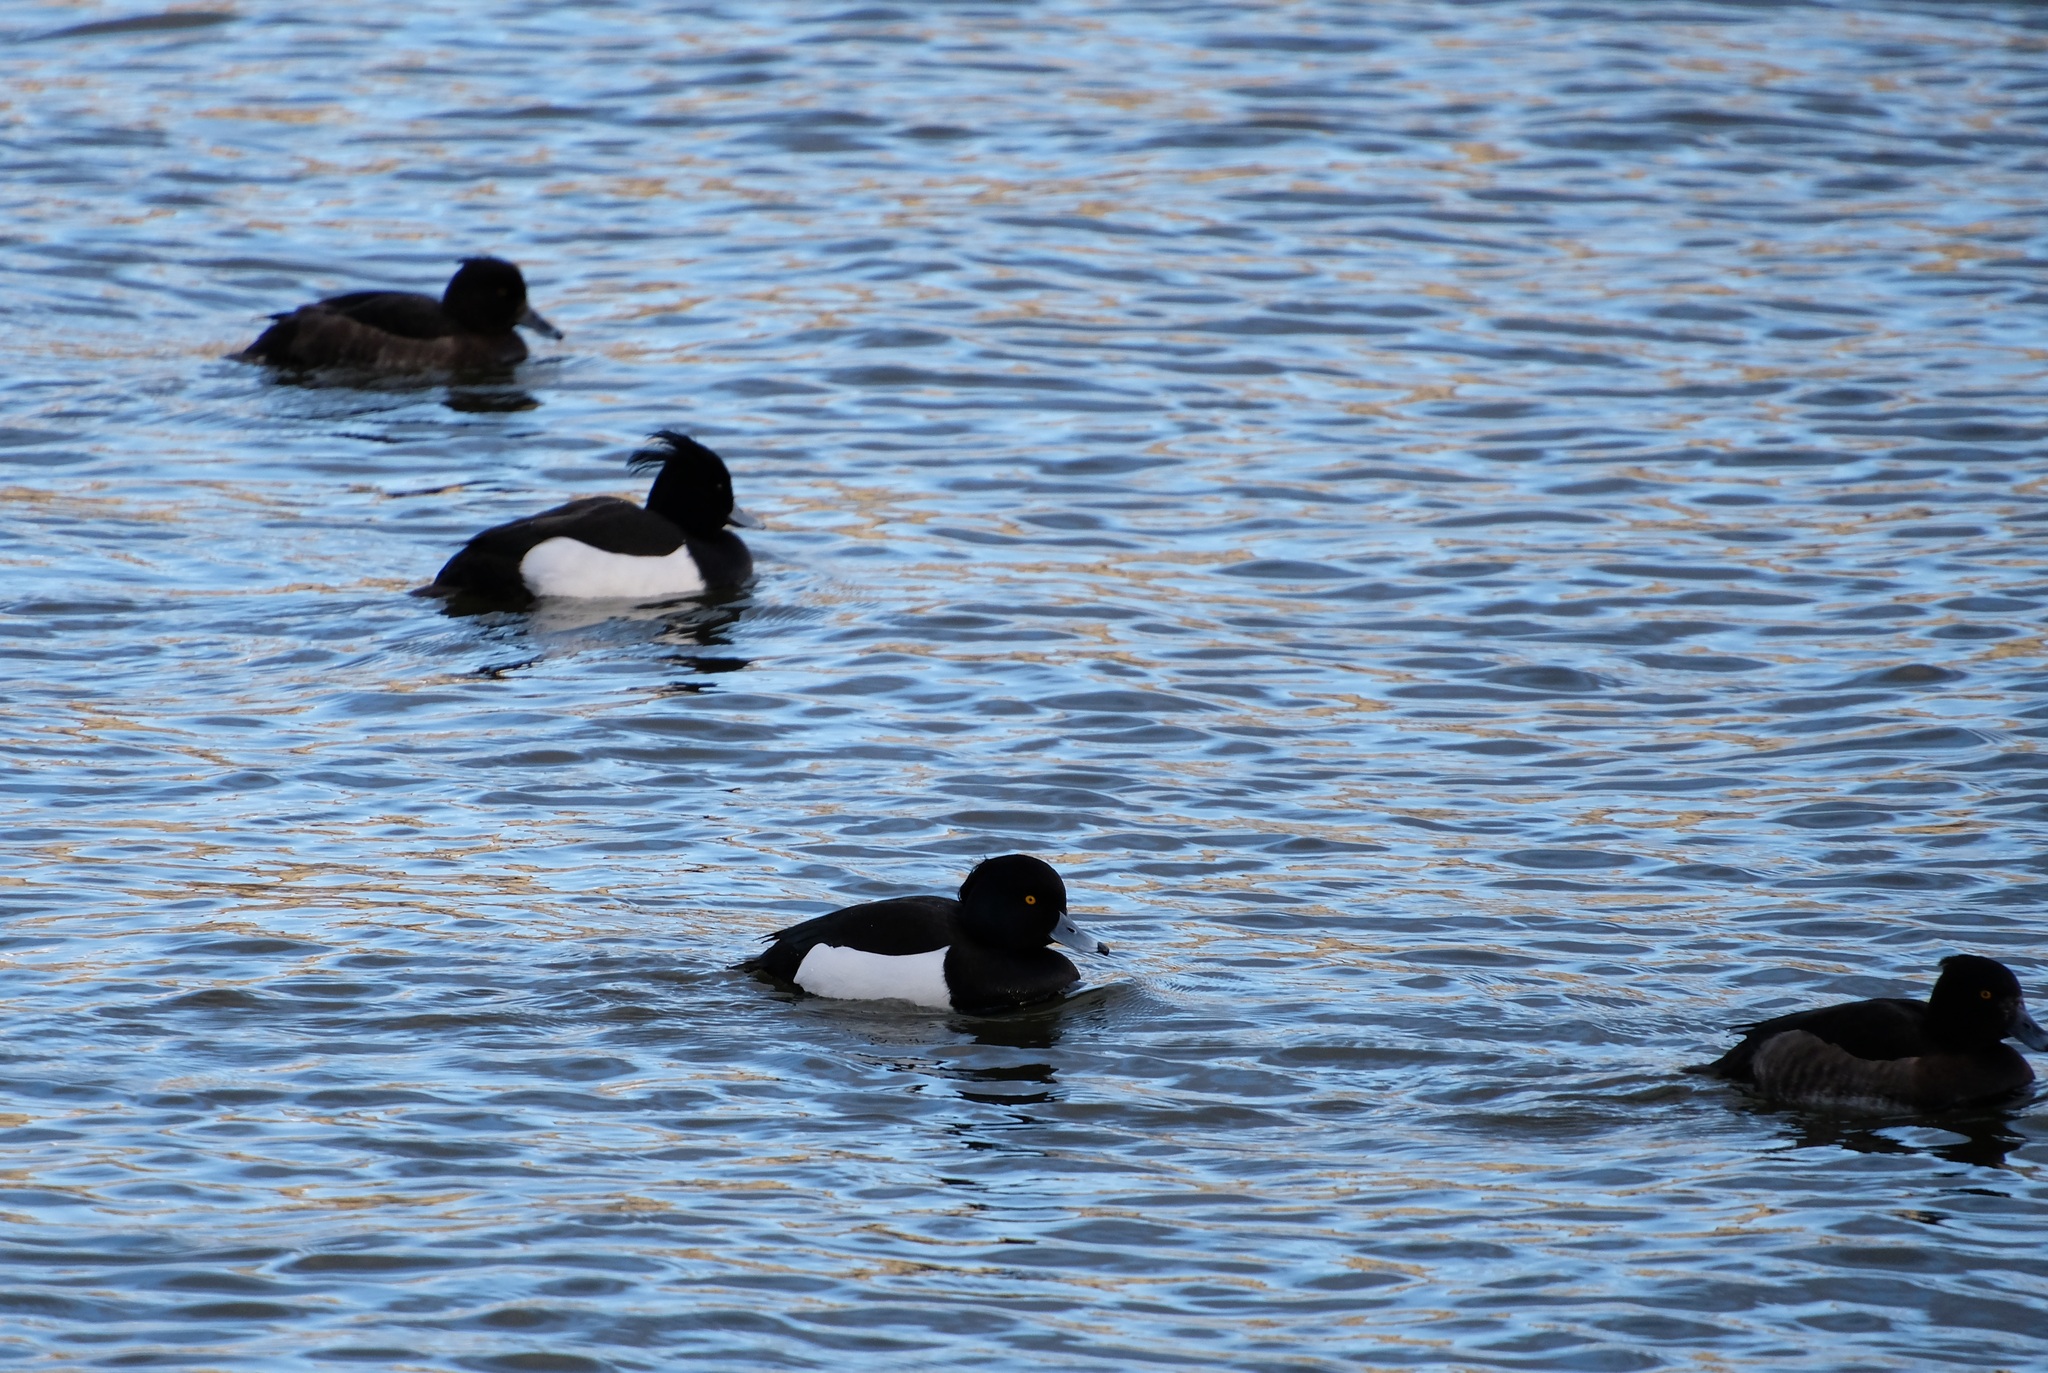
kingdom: Animalia
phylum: Chordata
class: Aves
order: Anseriformes
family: Anatidae
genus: Aythya
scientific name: Aythya fuligula
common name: Tufted duck
